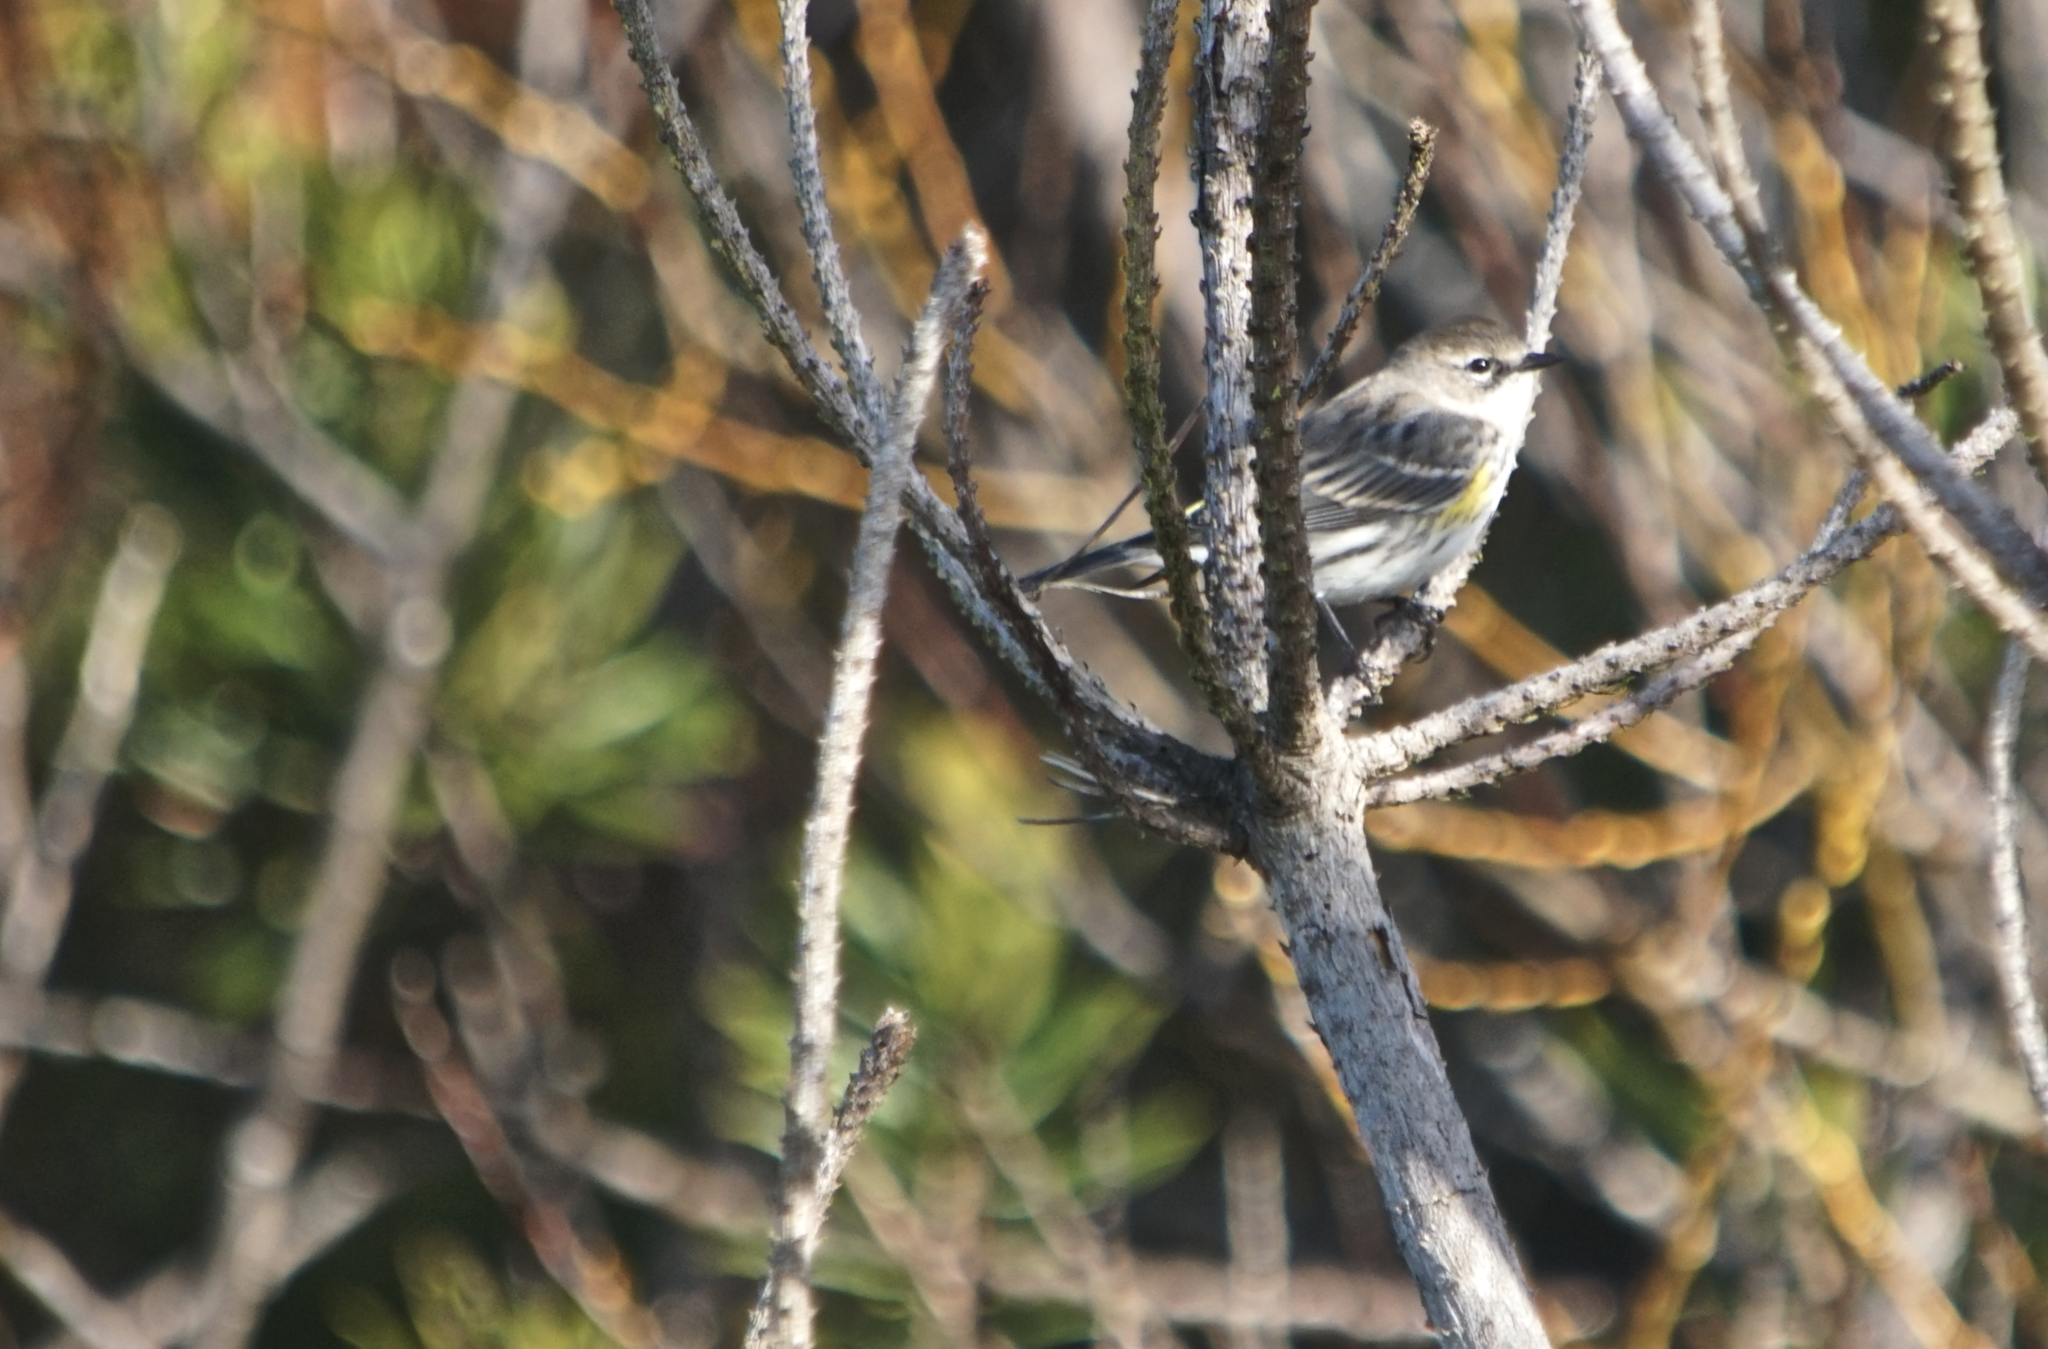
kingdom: Animalia
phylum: Chordata
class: Aves
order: Passeriformes
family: Parulidae
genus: Setophaga
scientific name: Setophaga coronata
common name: Myrtle warbler
